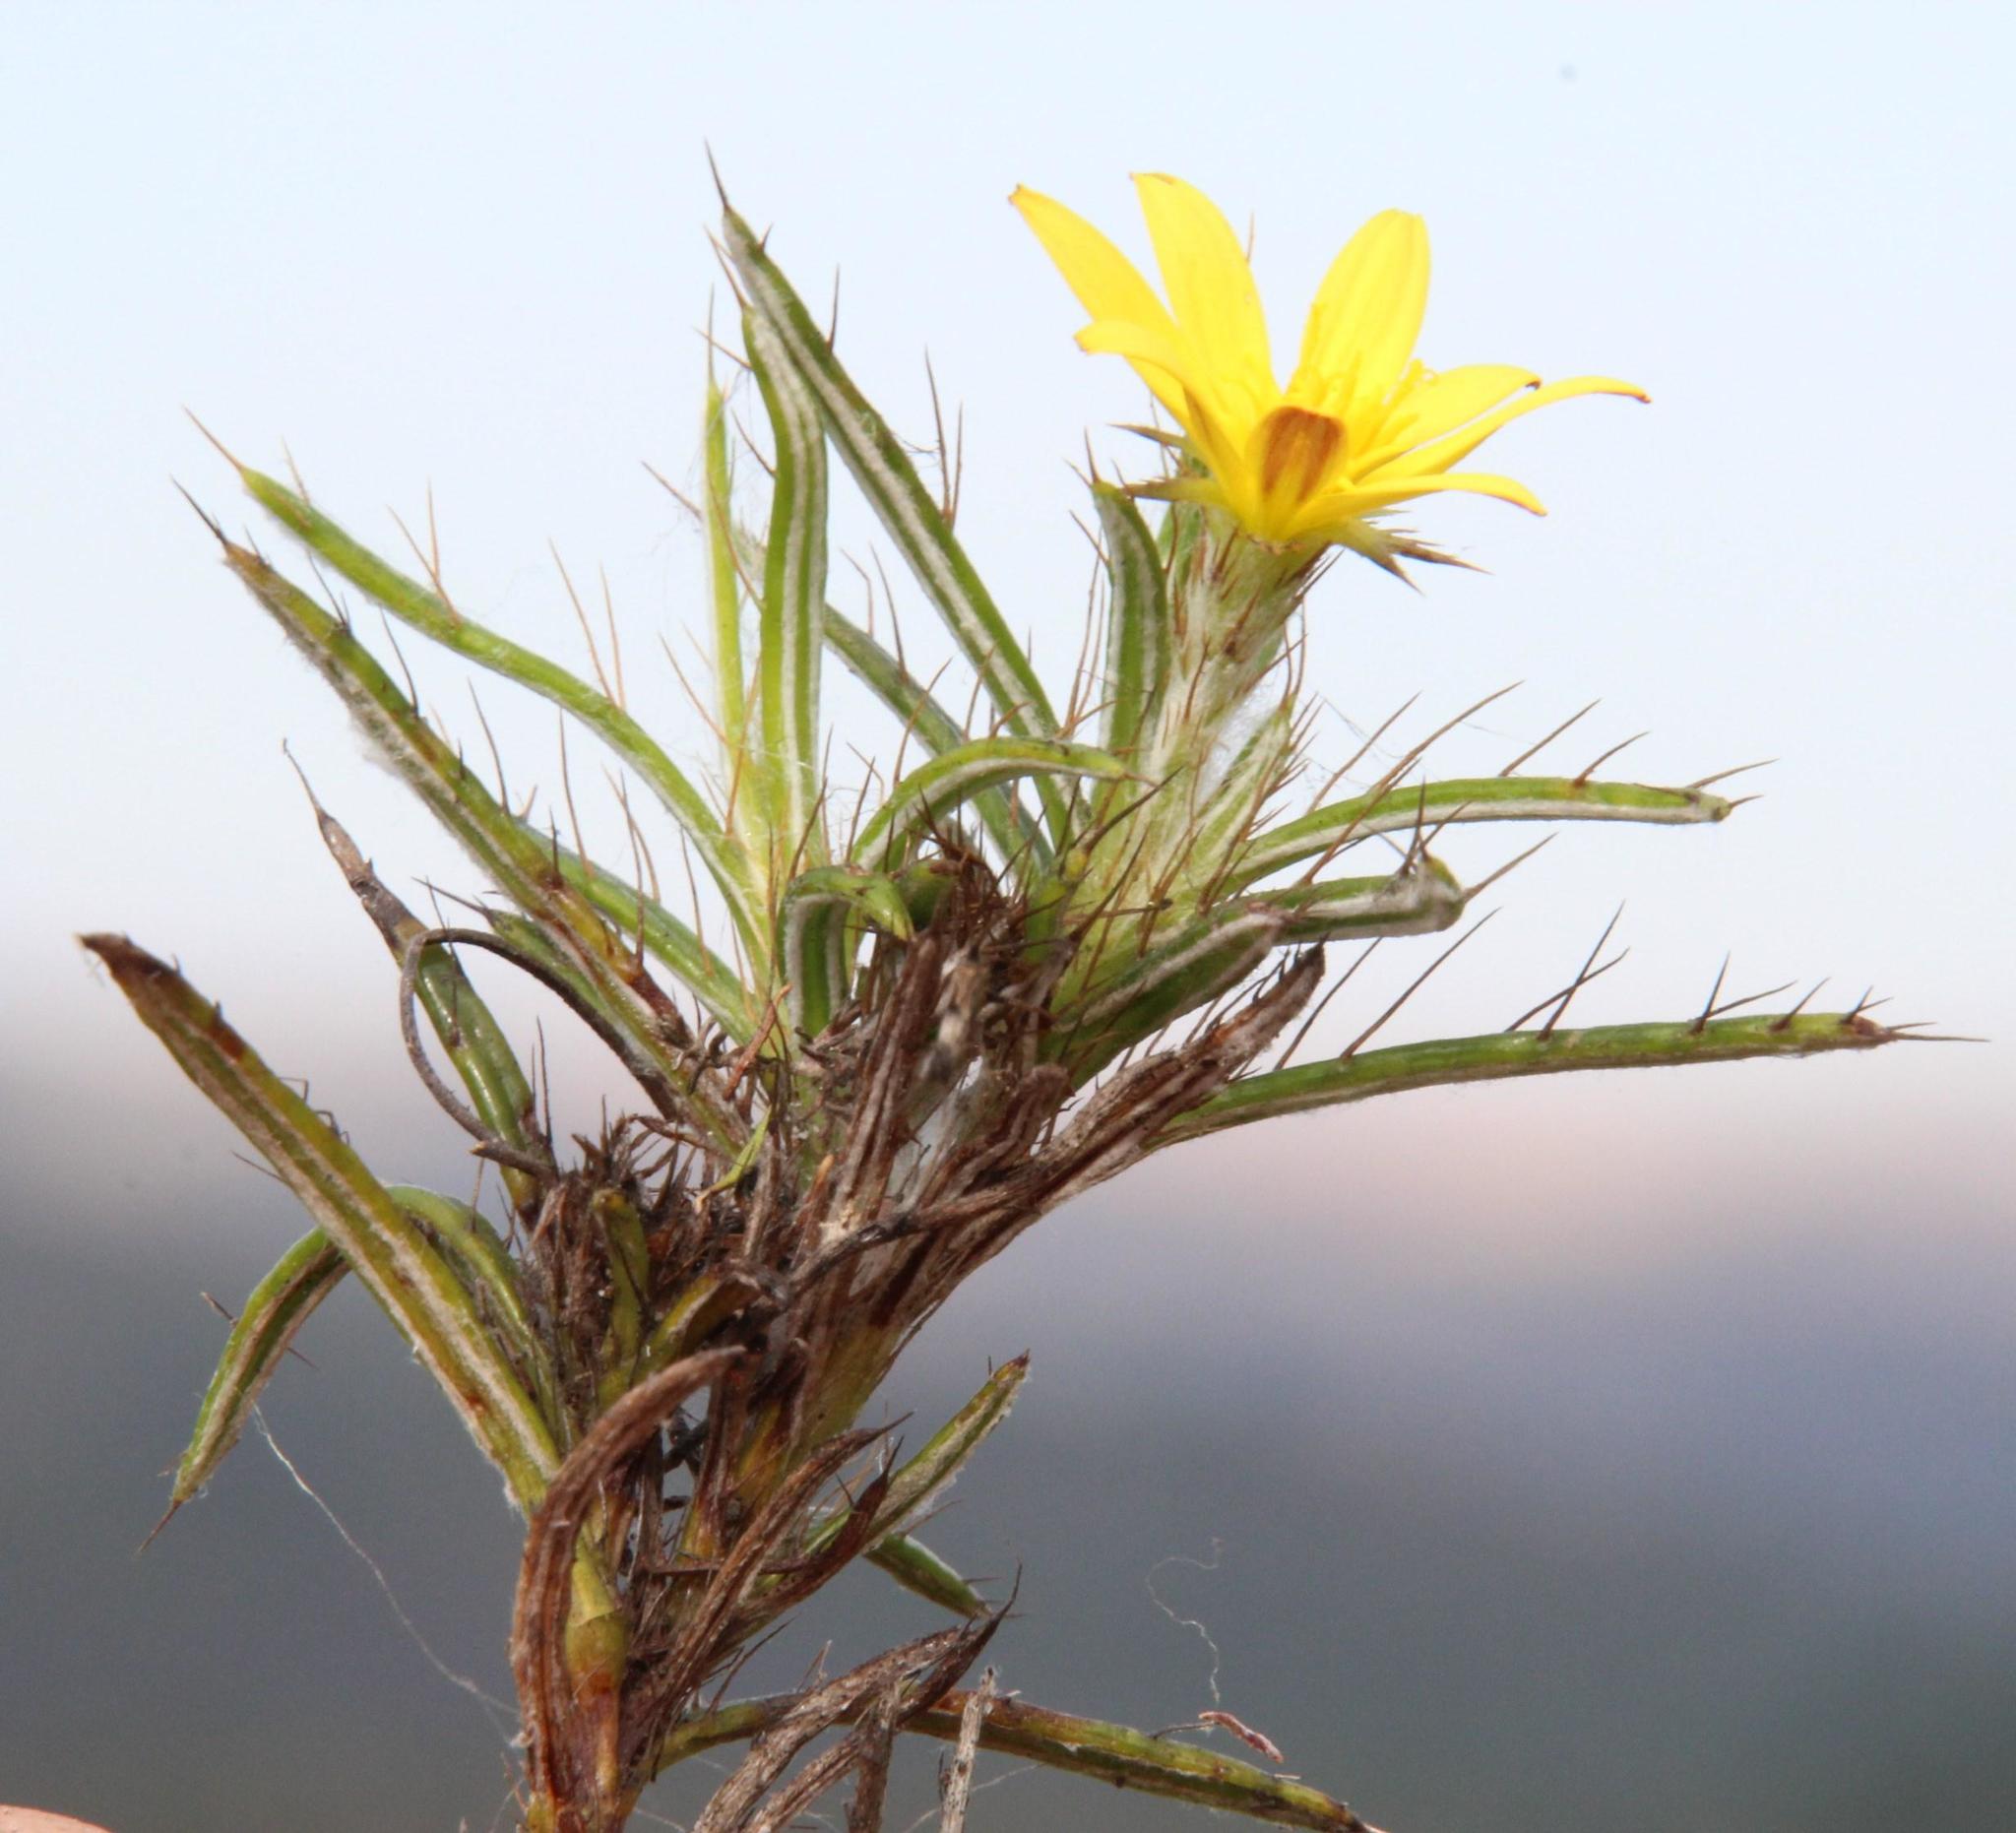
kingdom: Plantae
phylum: Tracheophyta
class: Magnoliopsida
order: Asterales
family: Asteraceae
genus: Cullumia
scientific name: Cullumia aculeata
